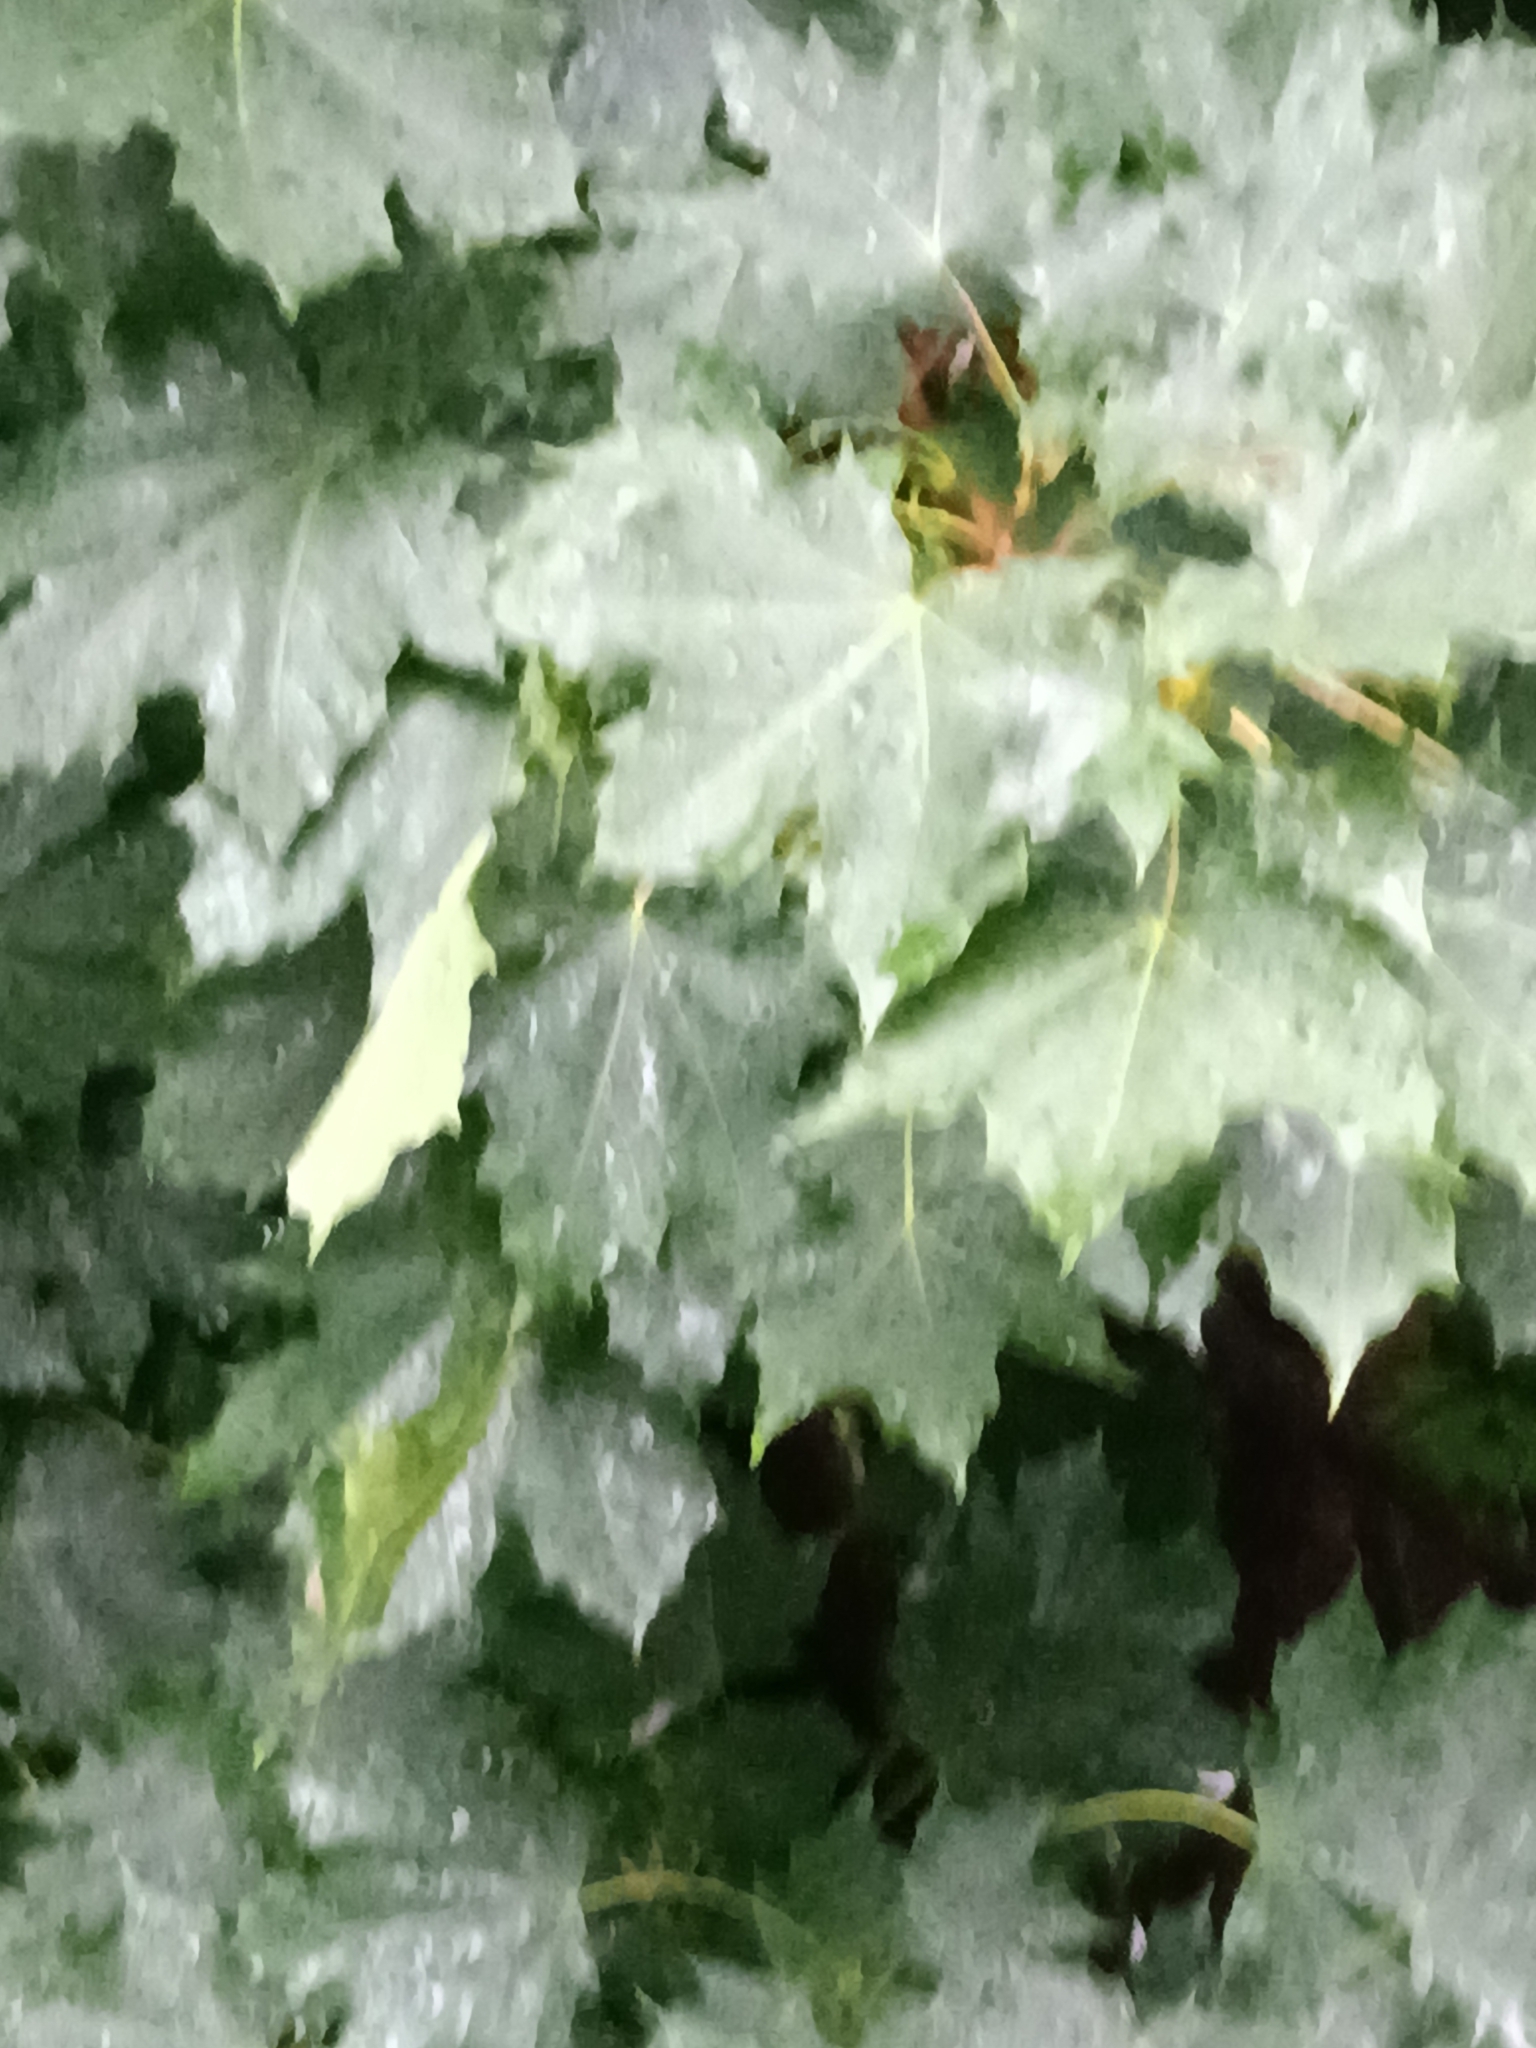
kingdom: Plantae
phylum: Tracheophyta
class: Magnoliopsida
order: Sapindales
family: Sapindaceae
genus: Acer
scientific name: Acer platanoides
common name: Norway maple
